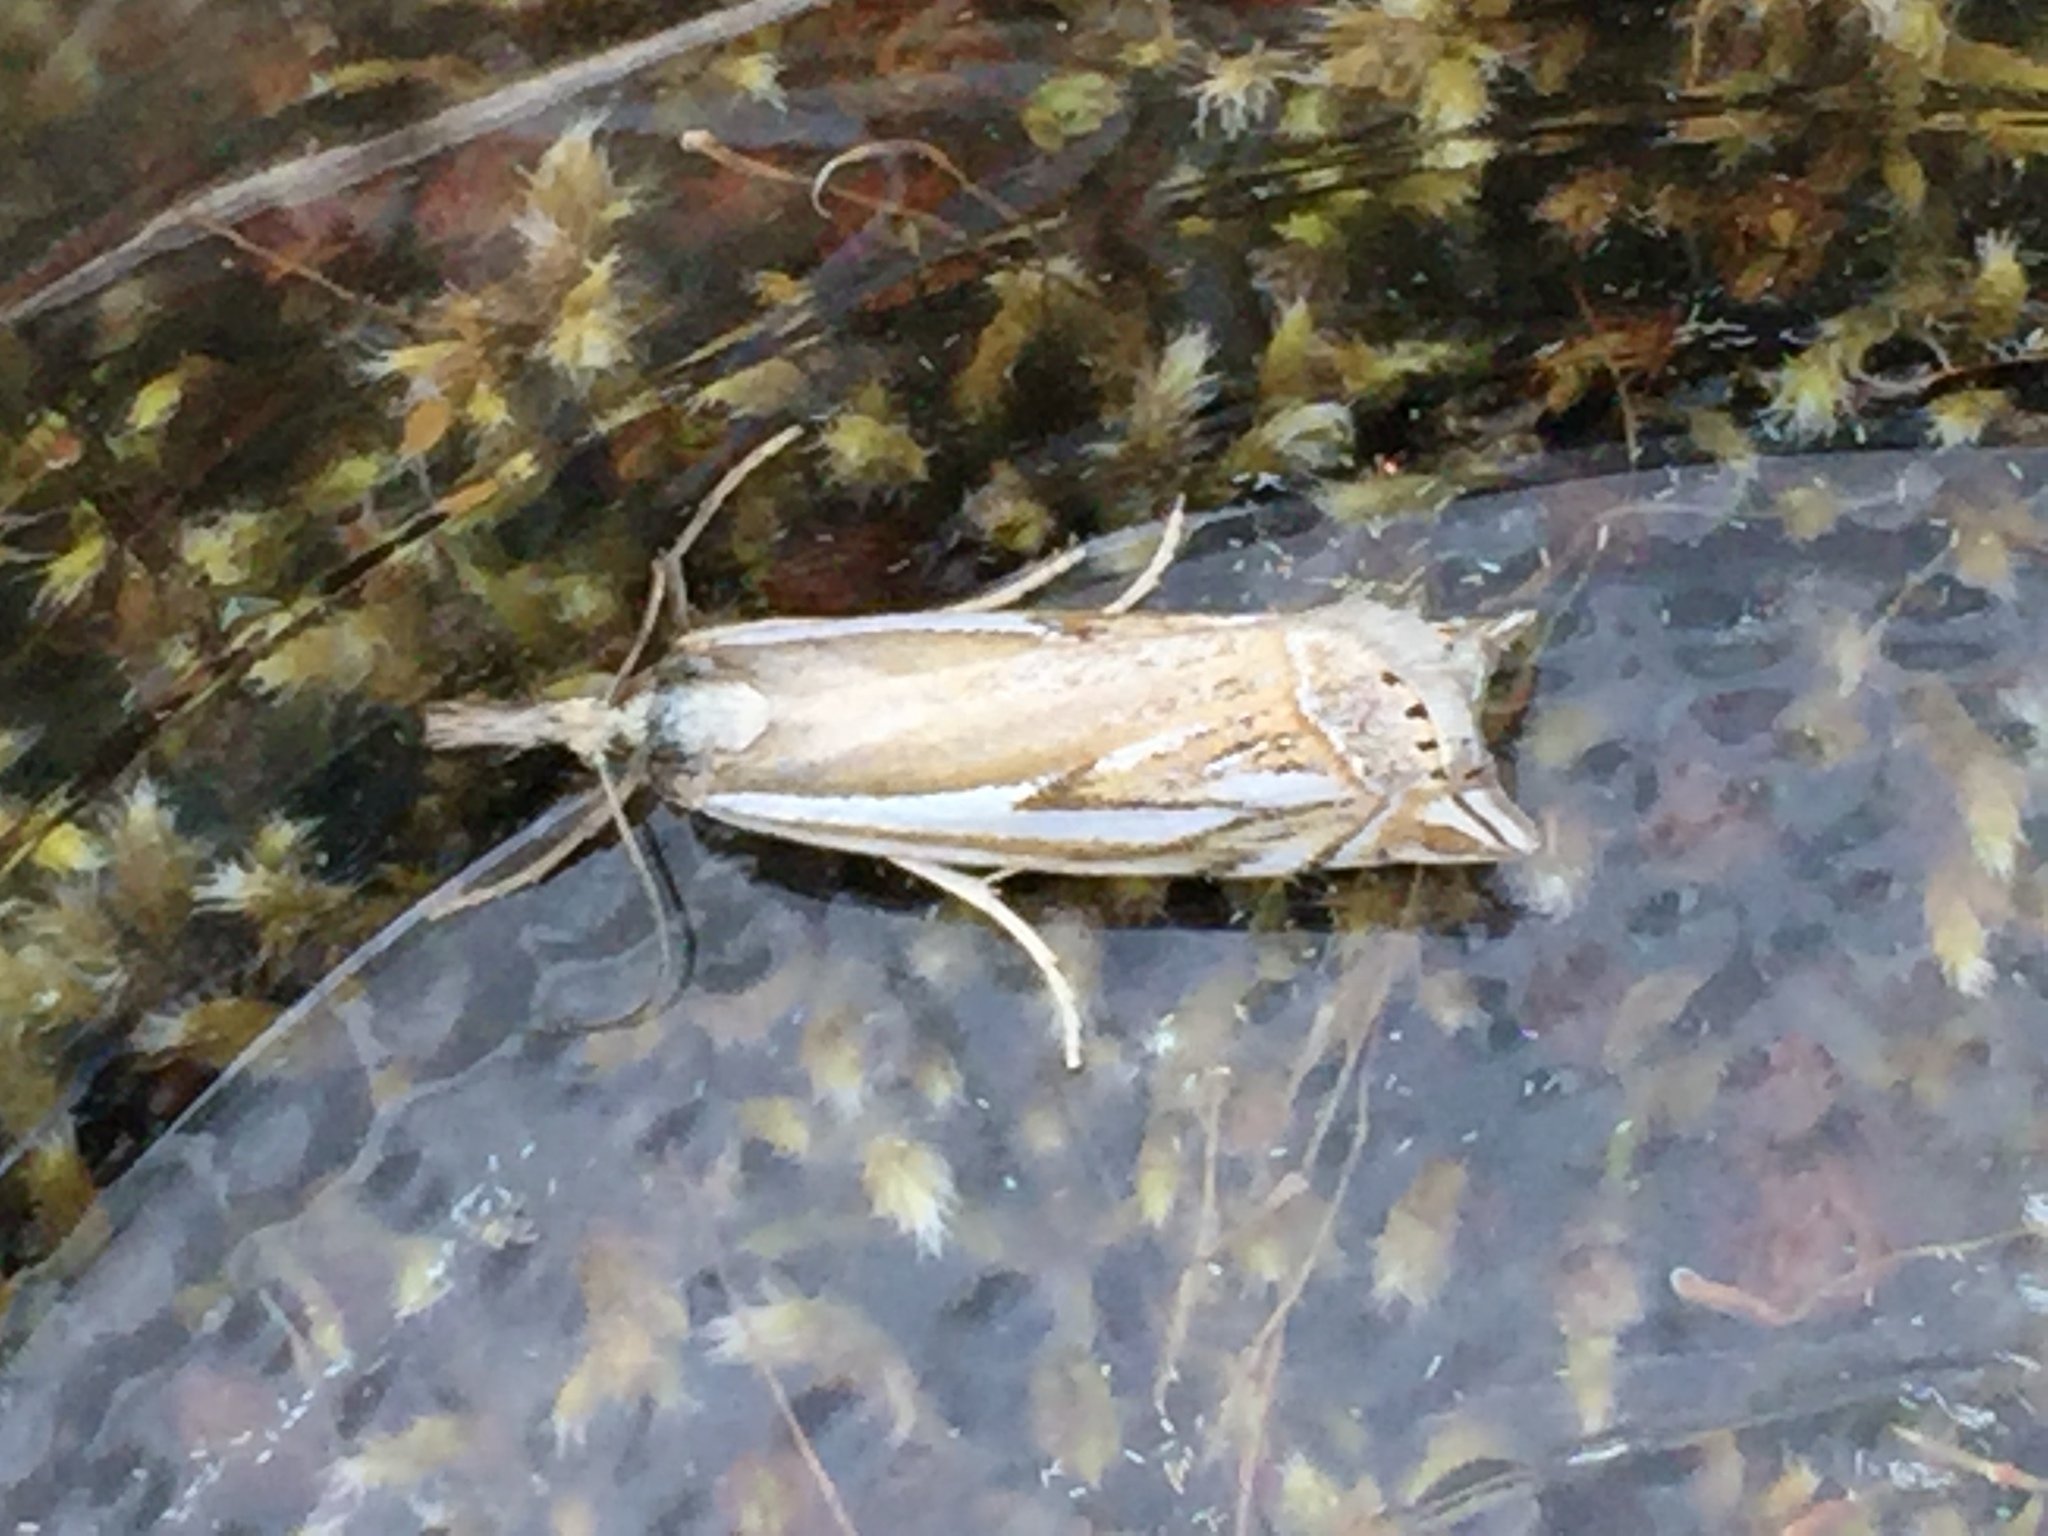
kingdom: Animalia
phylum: Arthropoda
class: Insecta
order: Lepidoptera
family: Crambidae
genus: Crambus
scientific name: Crambus whitmerellus
